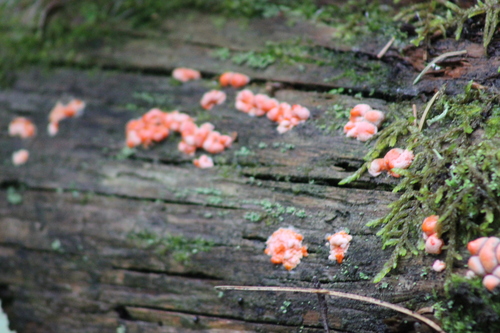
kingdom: Protozoa
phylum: Mycetozoa
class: Myxomycetes
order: Cribrariales
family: Tubiferaceae
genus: Lycogala
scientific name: Lycogala epidendrum
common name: Wolf's milk
